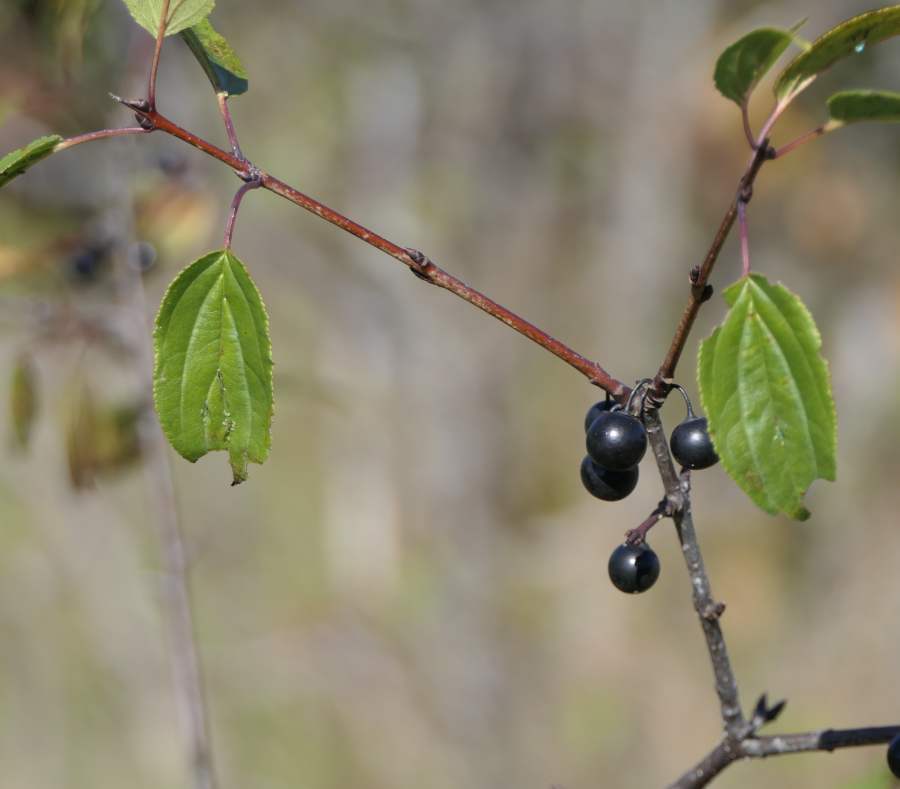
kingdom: Plantae
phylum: Tracheophyta
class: Magnoliopsida
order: Rosales
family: Rhamnaceae
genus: Rhamnus
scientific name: Rhamnus cathartica
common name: Common buckthorn
